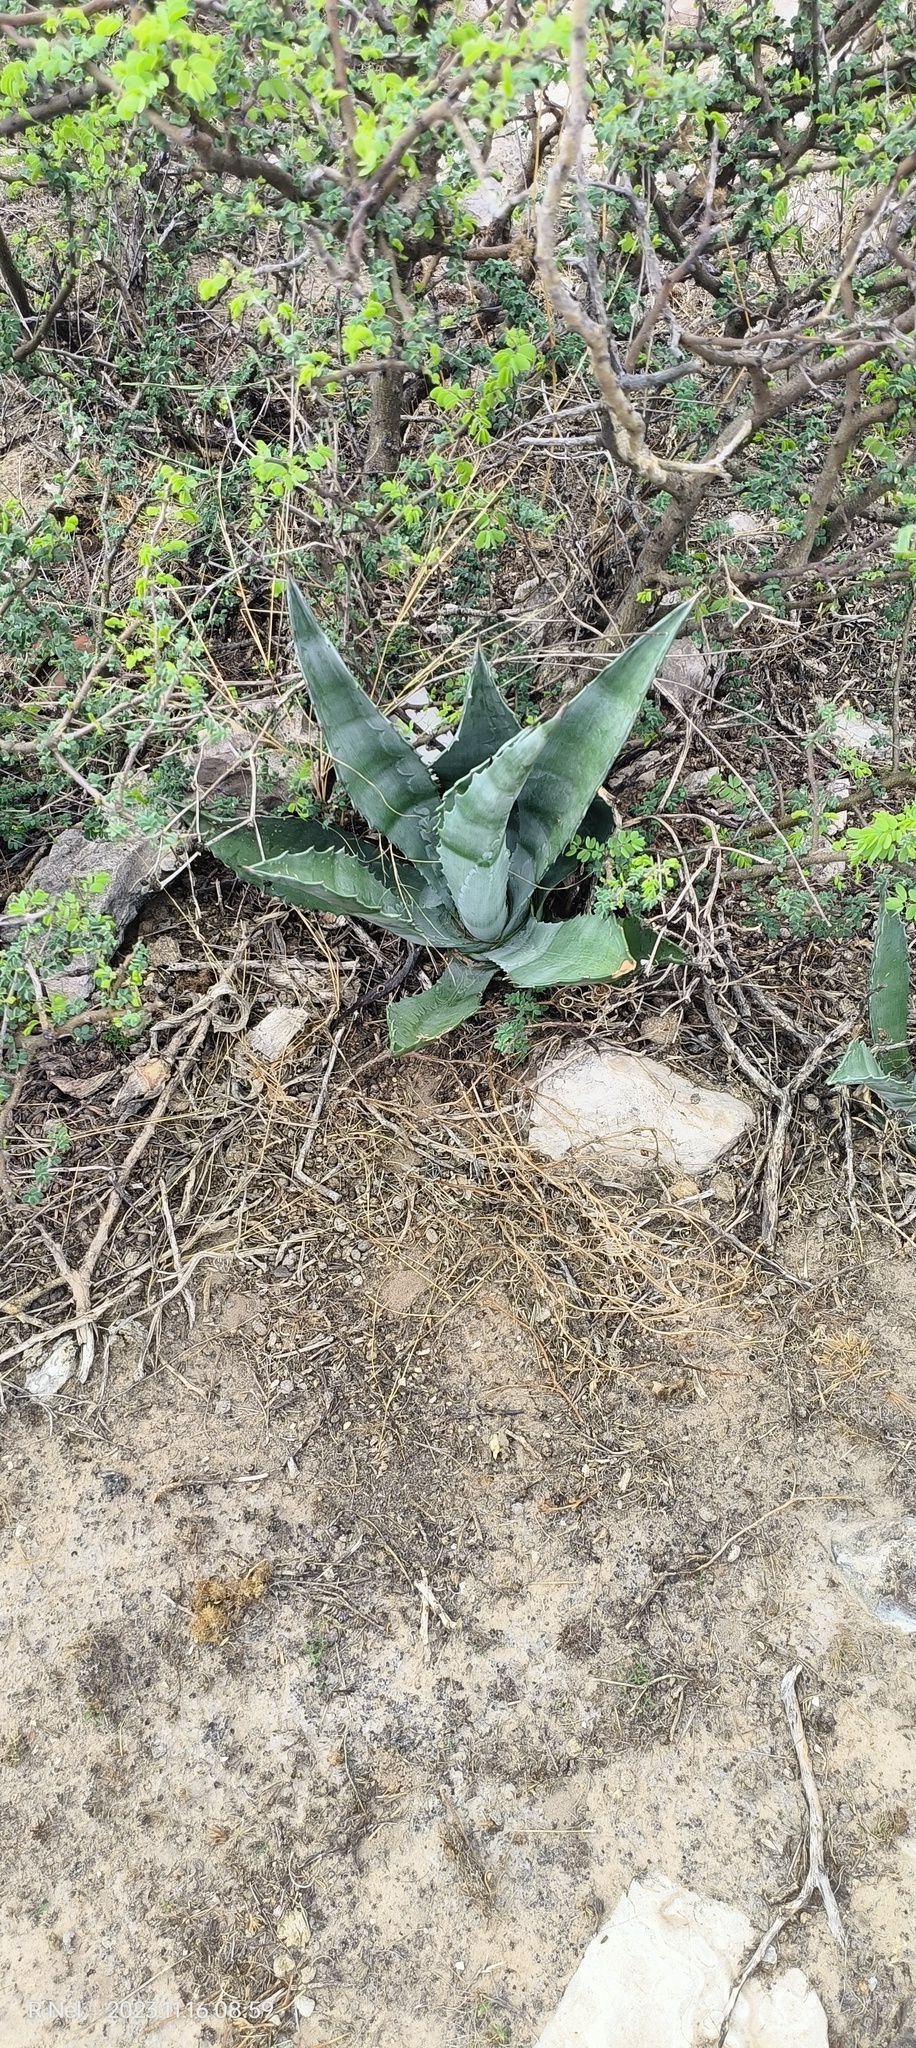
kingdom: Plantae
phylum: Tracheophyta
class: Liliopsida
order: Asparagales
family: Asparagaceae
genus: Agave
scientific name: Agave americana
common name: Centuryplant
